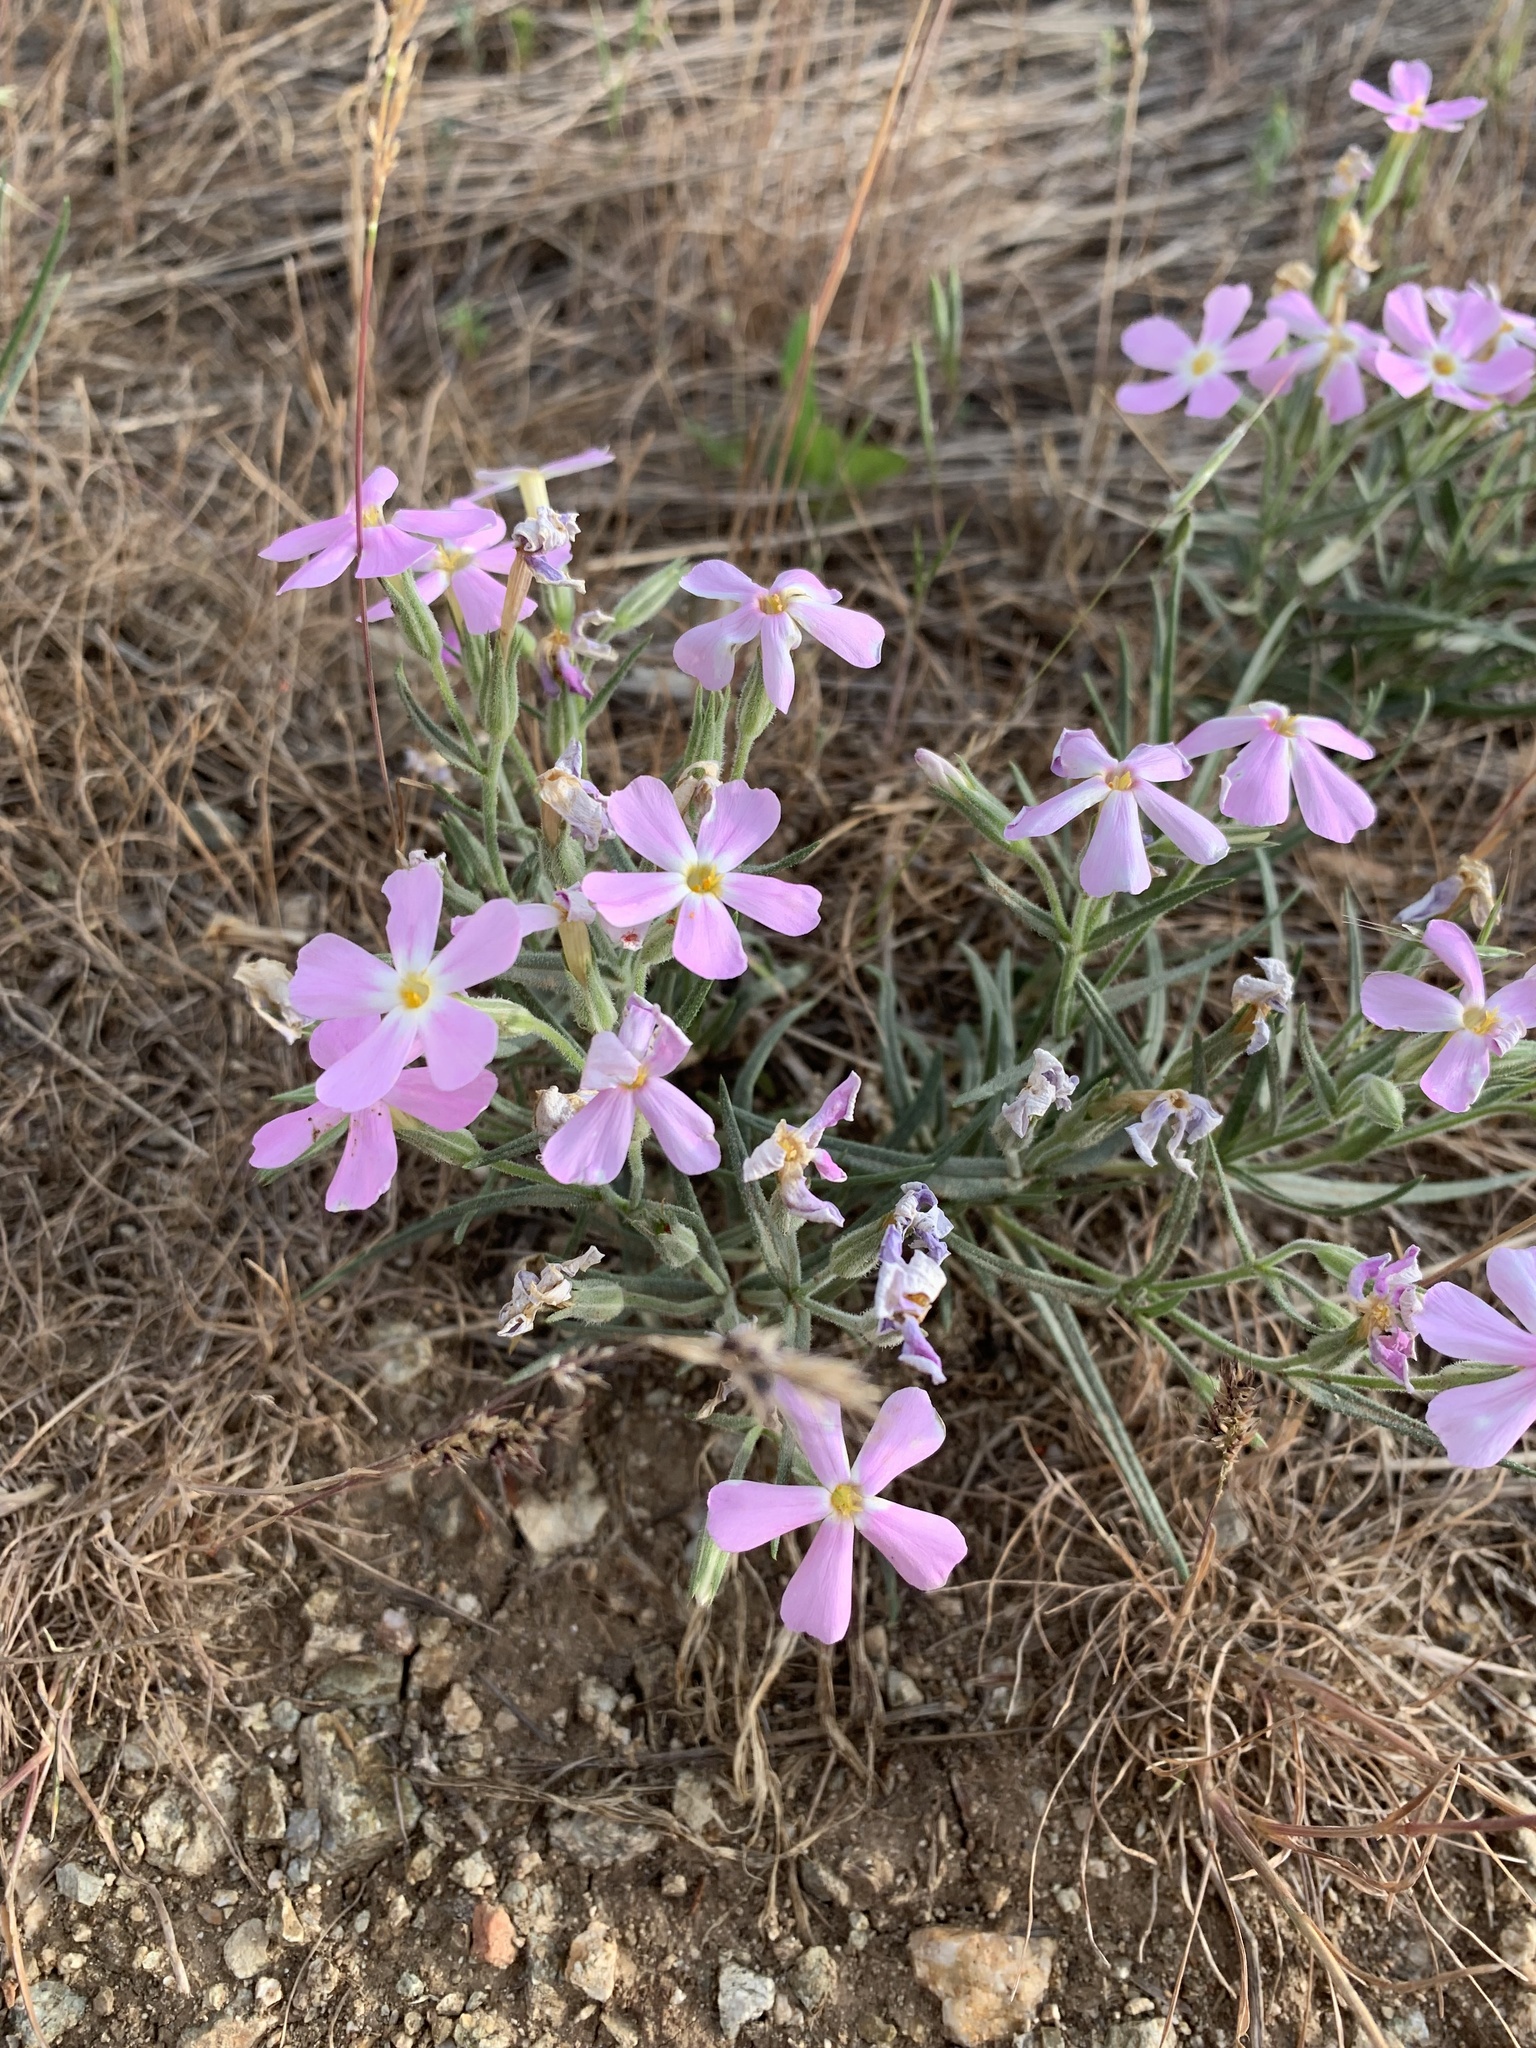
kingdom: Plantae
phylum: Tracheophyta
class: Magnoliopsida
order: Ericales
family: Polemoniaceae
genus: Phlox
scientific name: Phlox longifolia
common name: Longleaf phlox
